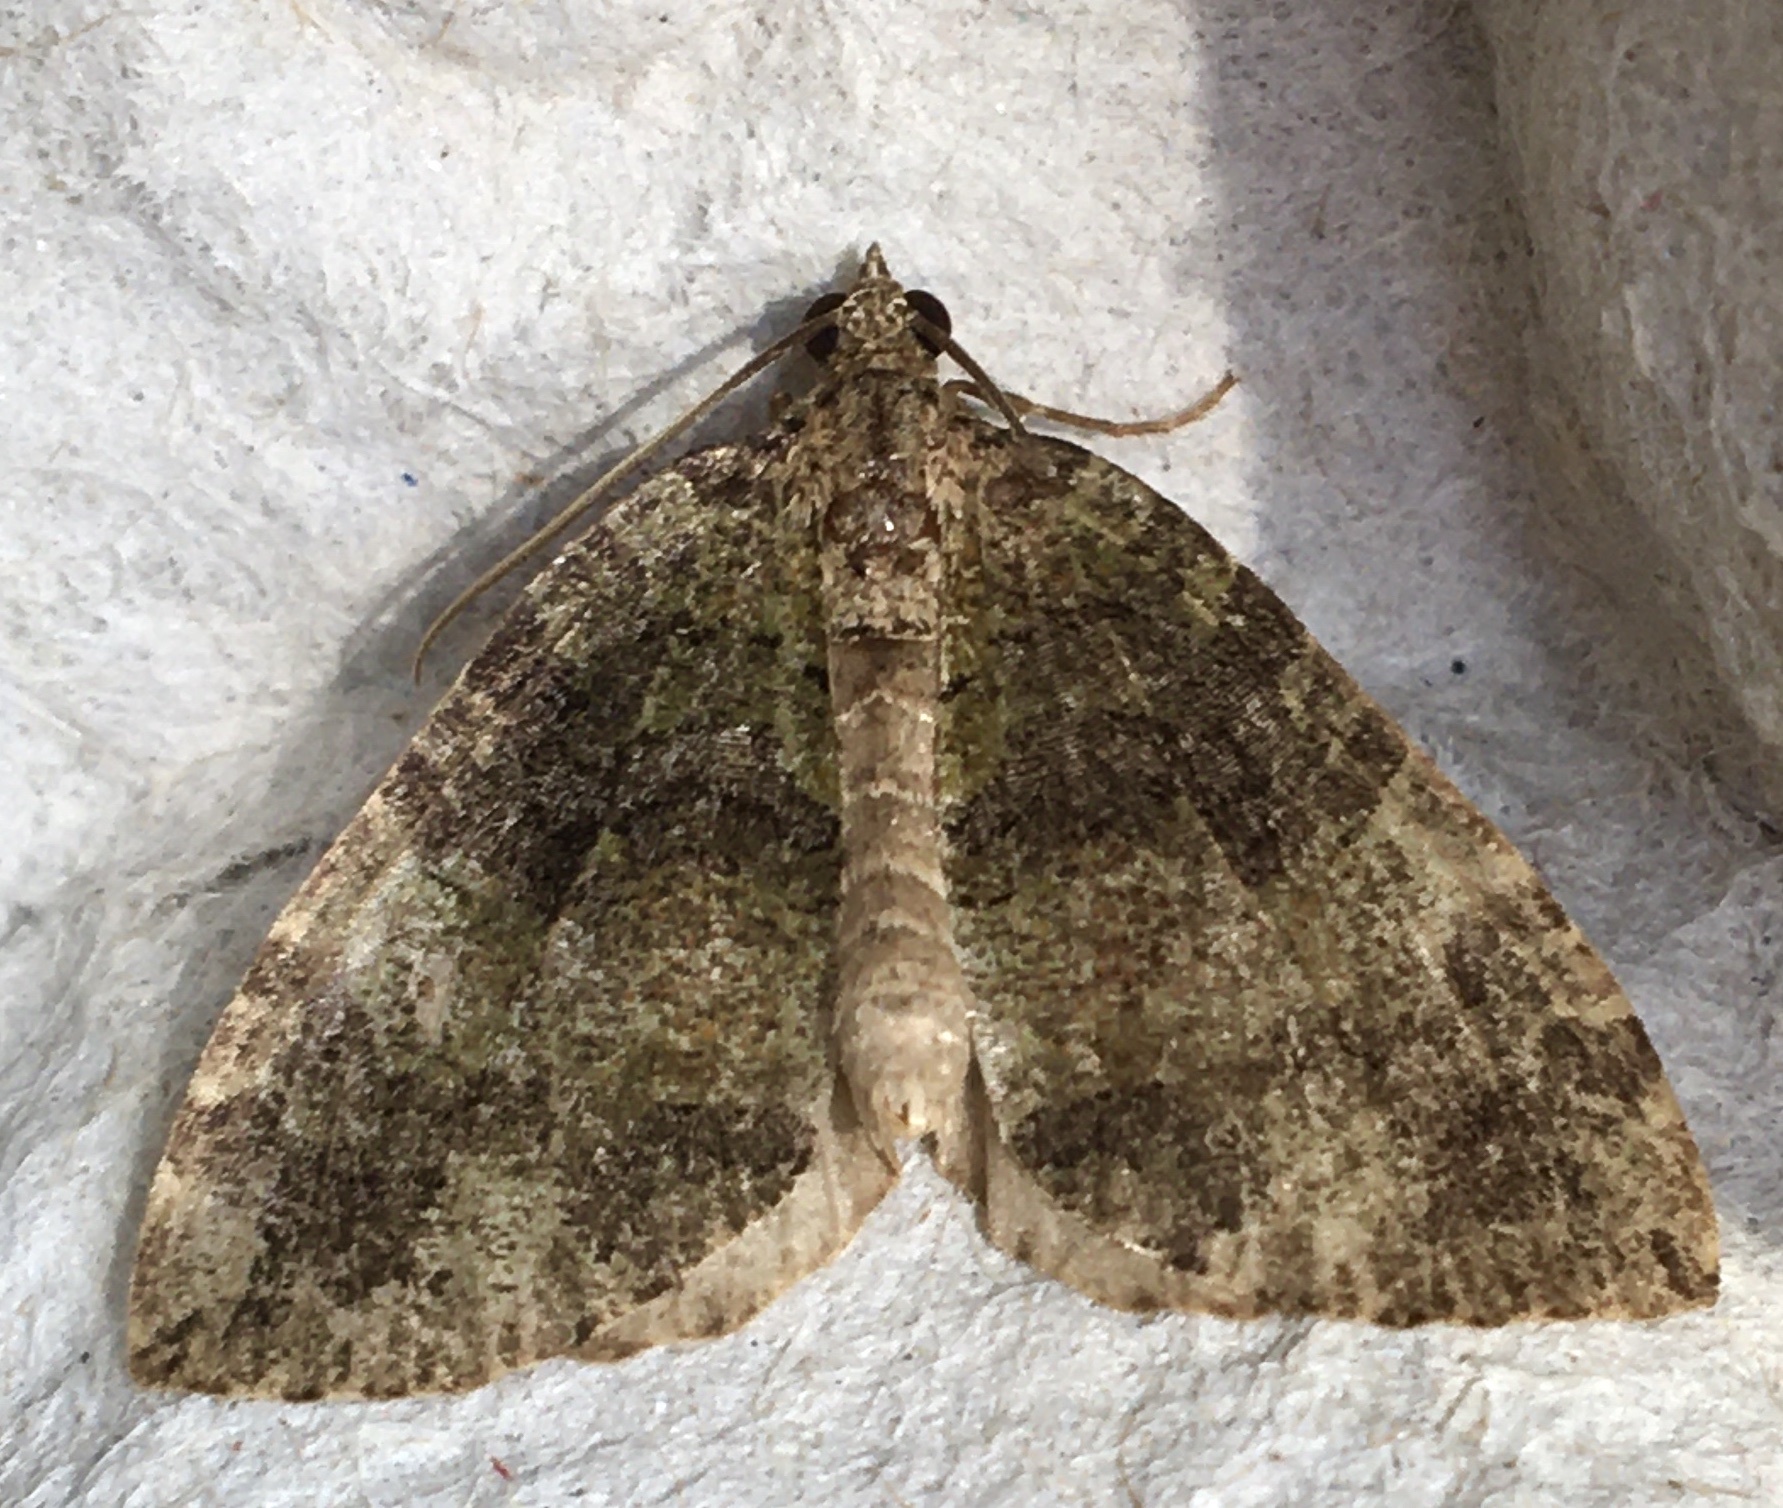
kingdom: Animalia
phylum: Arthropoda
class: Insecta
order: Lepidoptera
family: Geometridae
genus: Hydriomena
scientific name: Hydriomena furcata
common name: July highflyer
